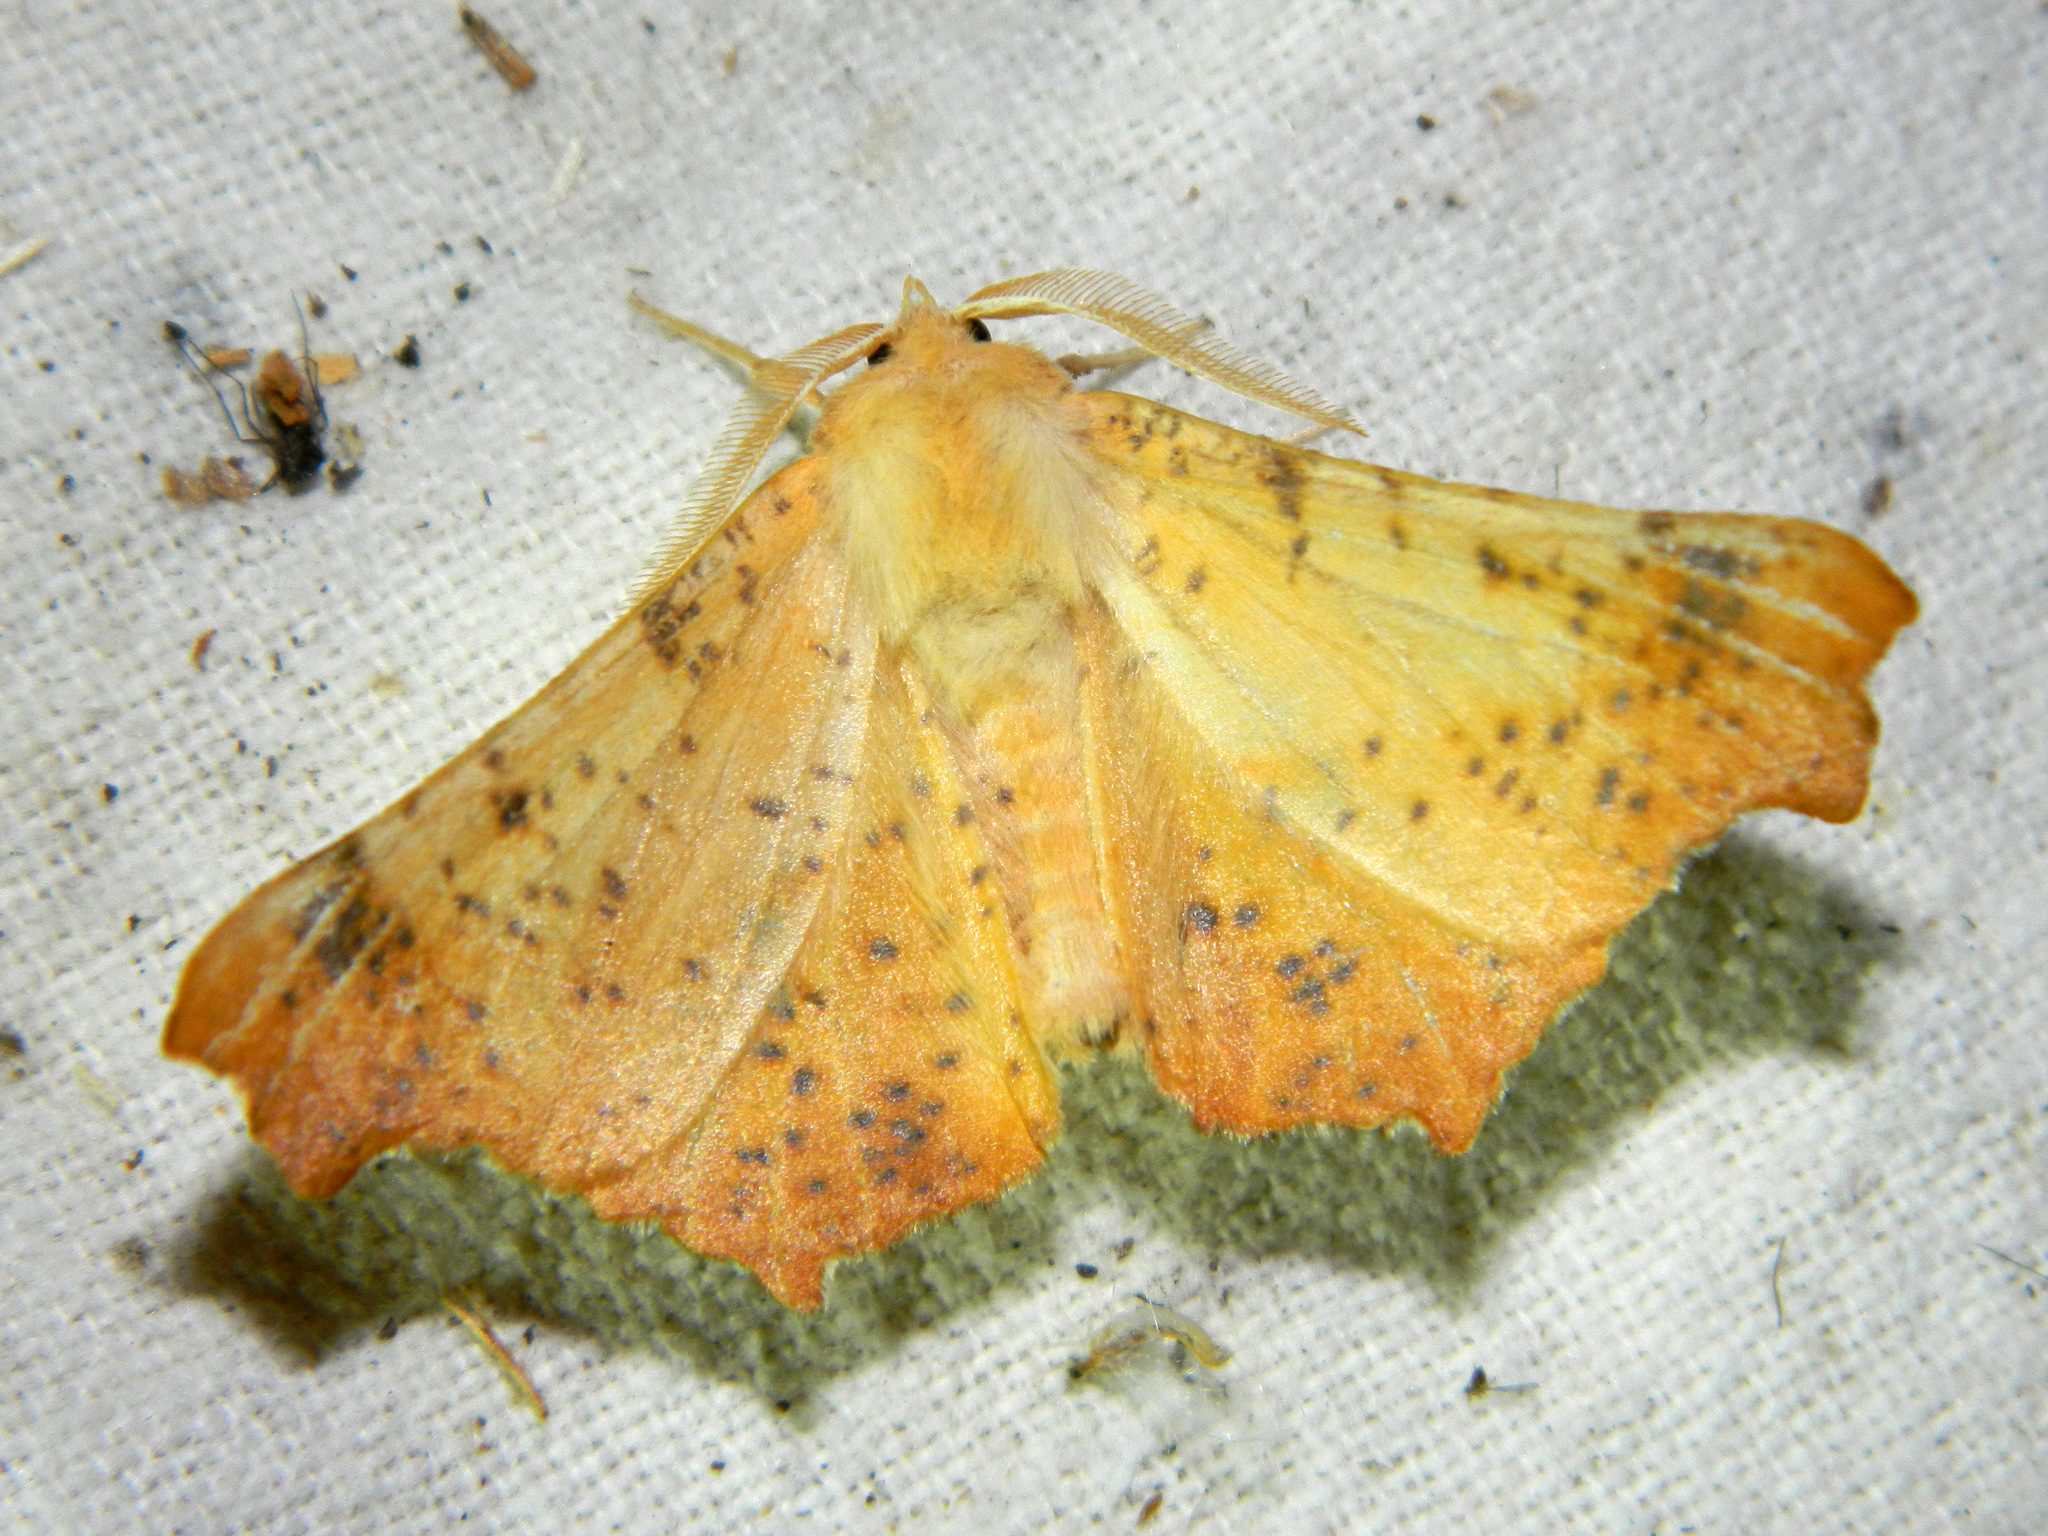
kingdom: Animalia
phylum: Arthropoda
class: Insecta
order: Lepidoptera
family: Geometridae
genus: Ennomos
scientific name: Ennomos magnaria
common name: Maple spanworm
